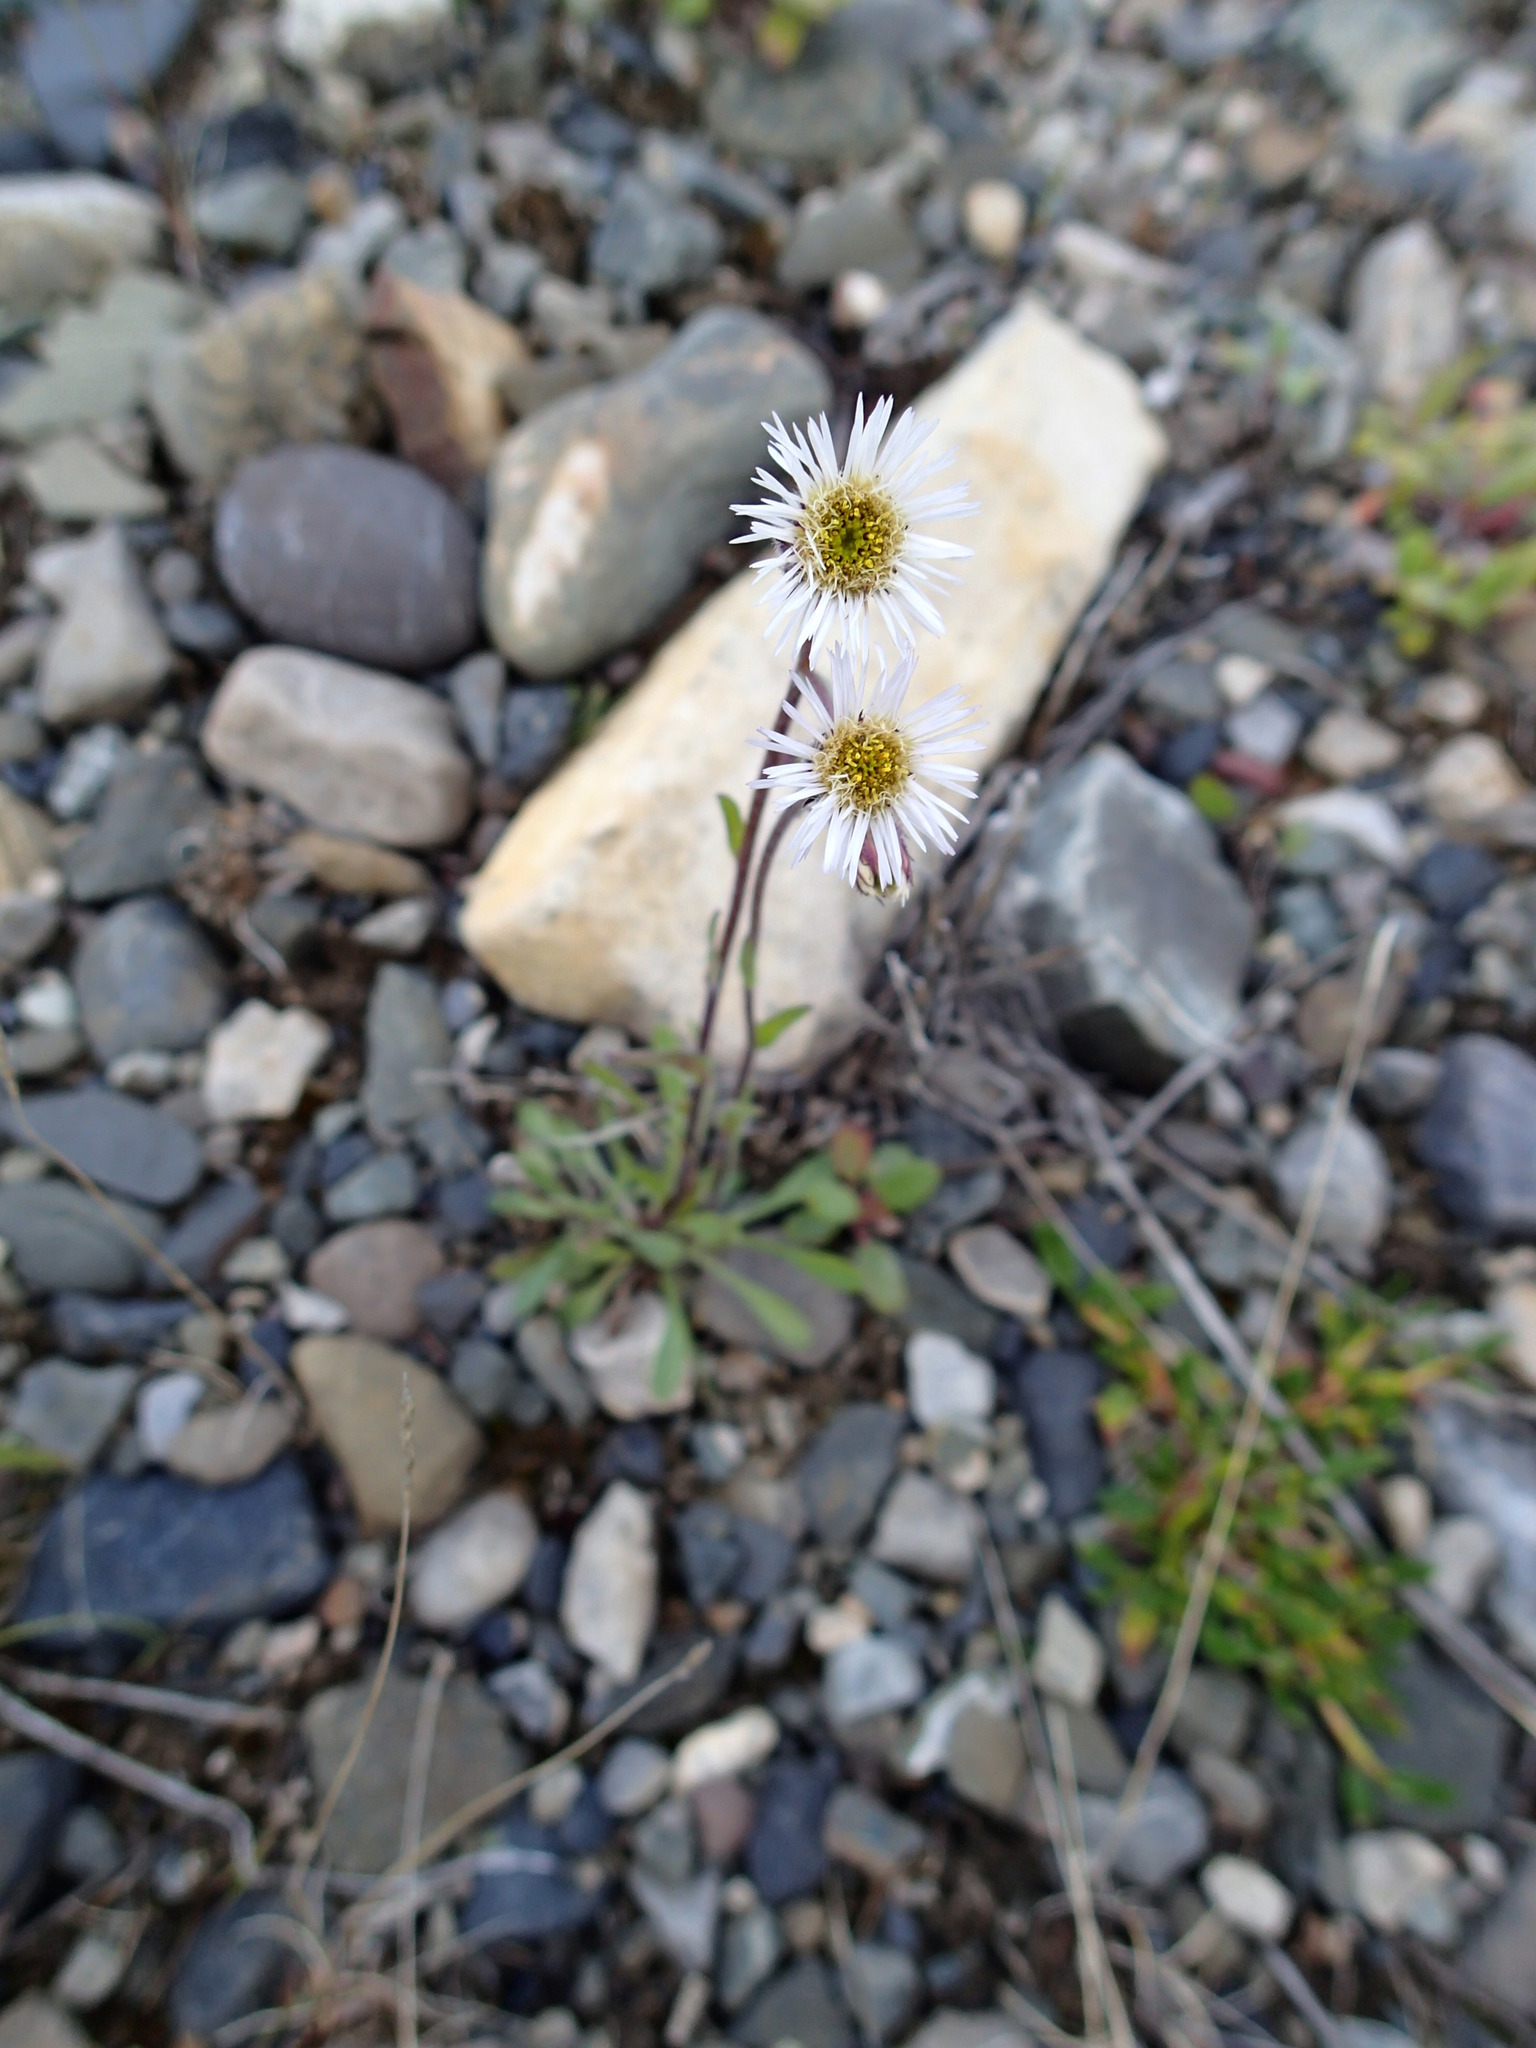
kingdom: Plantae
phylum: Tracheophyta
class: Magnoliopsida
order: Asterales
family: Asteraceae
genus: Erigeron
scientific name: Erigeron humilis
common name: Arctic-alpine fleabane
